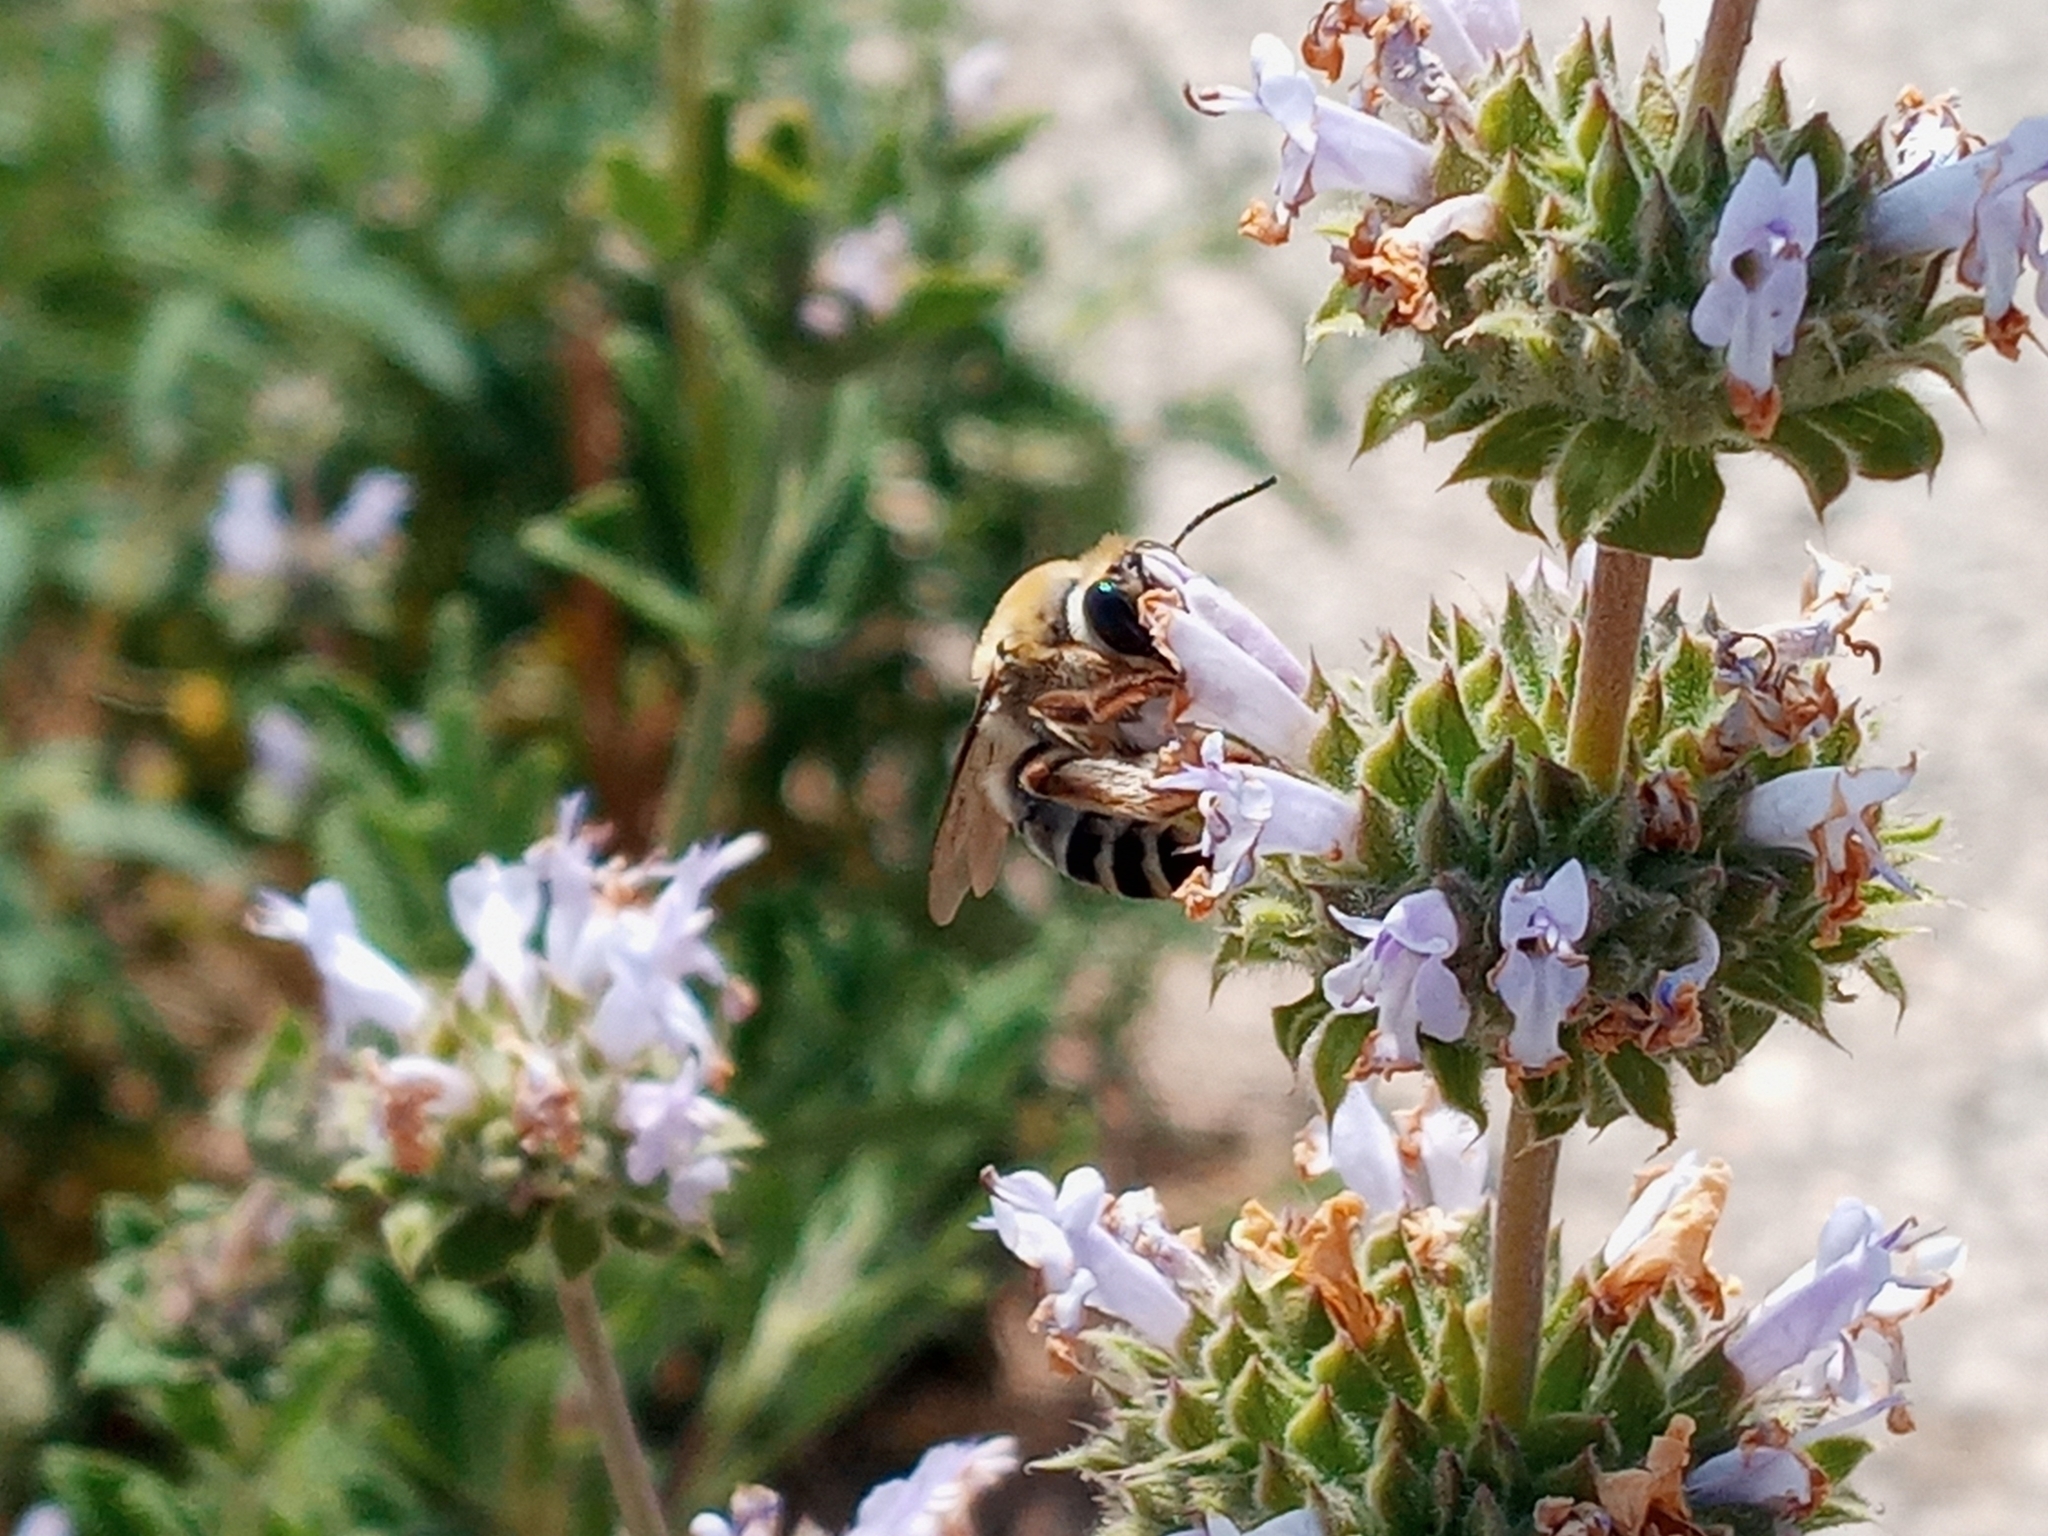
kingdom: Animalia
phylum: Arthropoda
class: Insecta
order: Hymenoptera
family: Apidae
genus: Anthophora
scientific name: Anthophora californica
